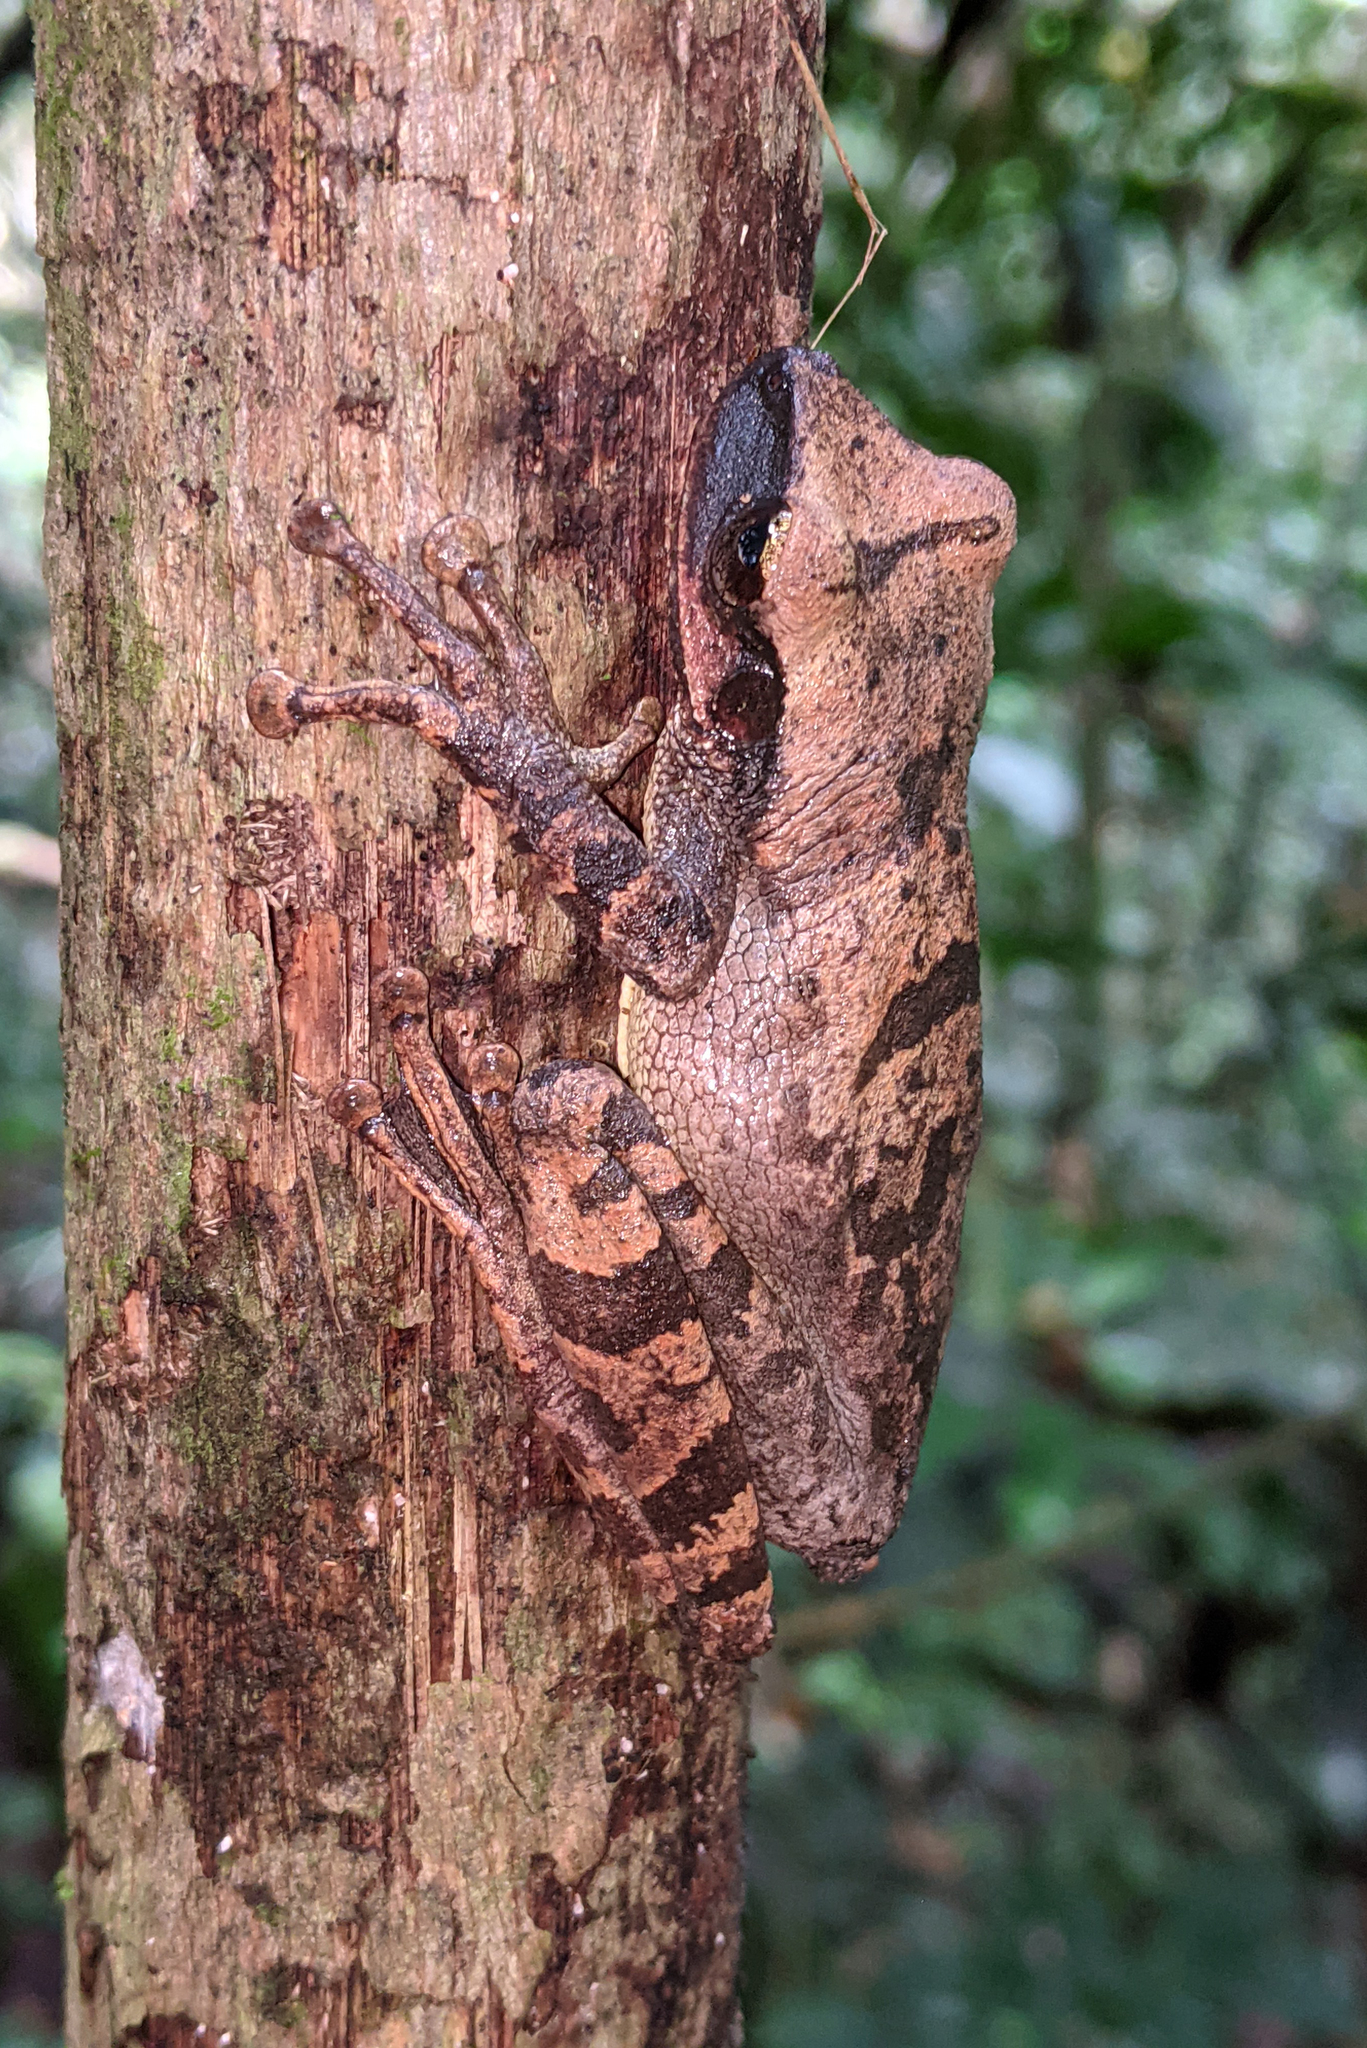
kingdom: Animalia
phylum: Chordata
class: Amphibia
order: Anura
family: Hylidae
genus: Osteocephalus
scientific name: Osteocephalus yasuni
